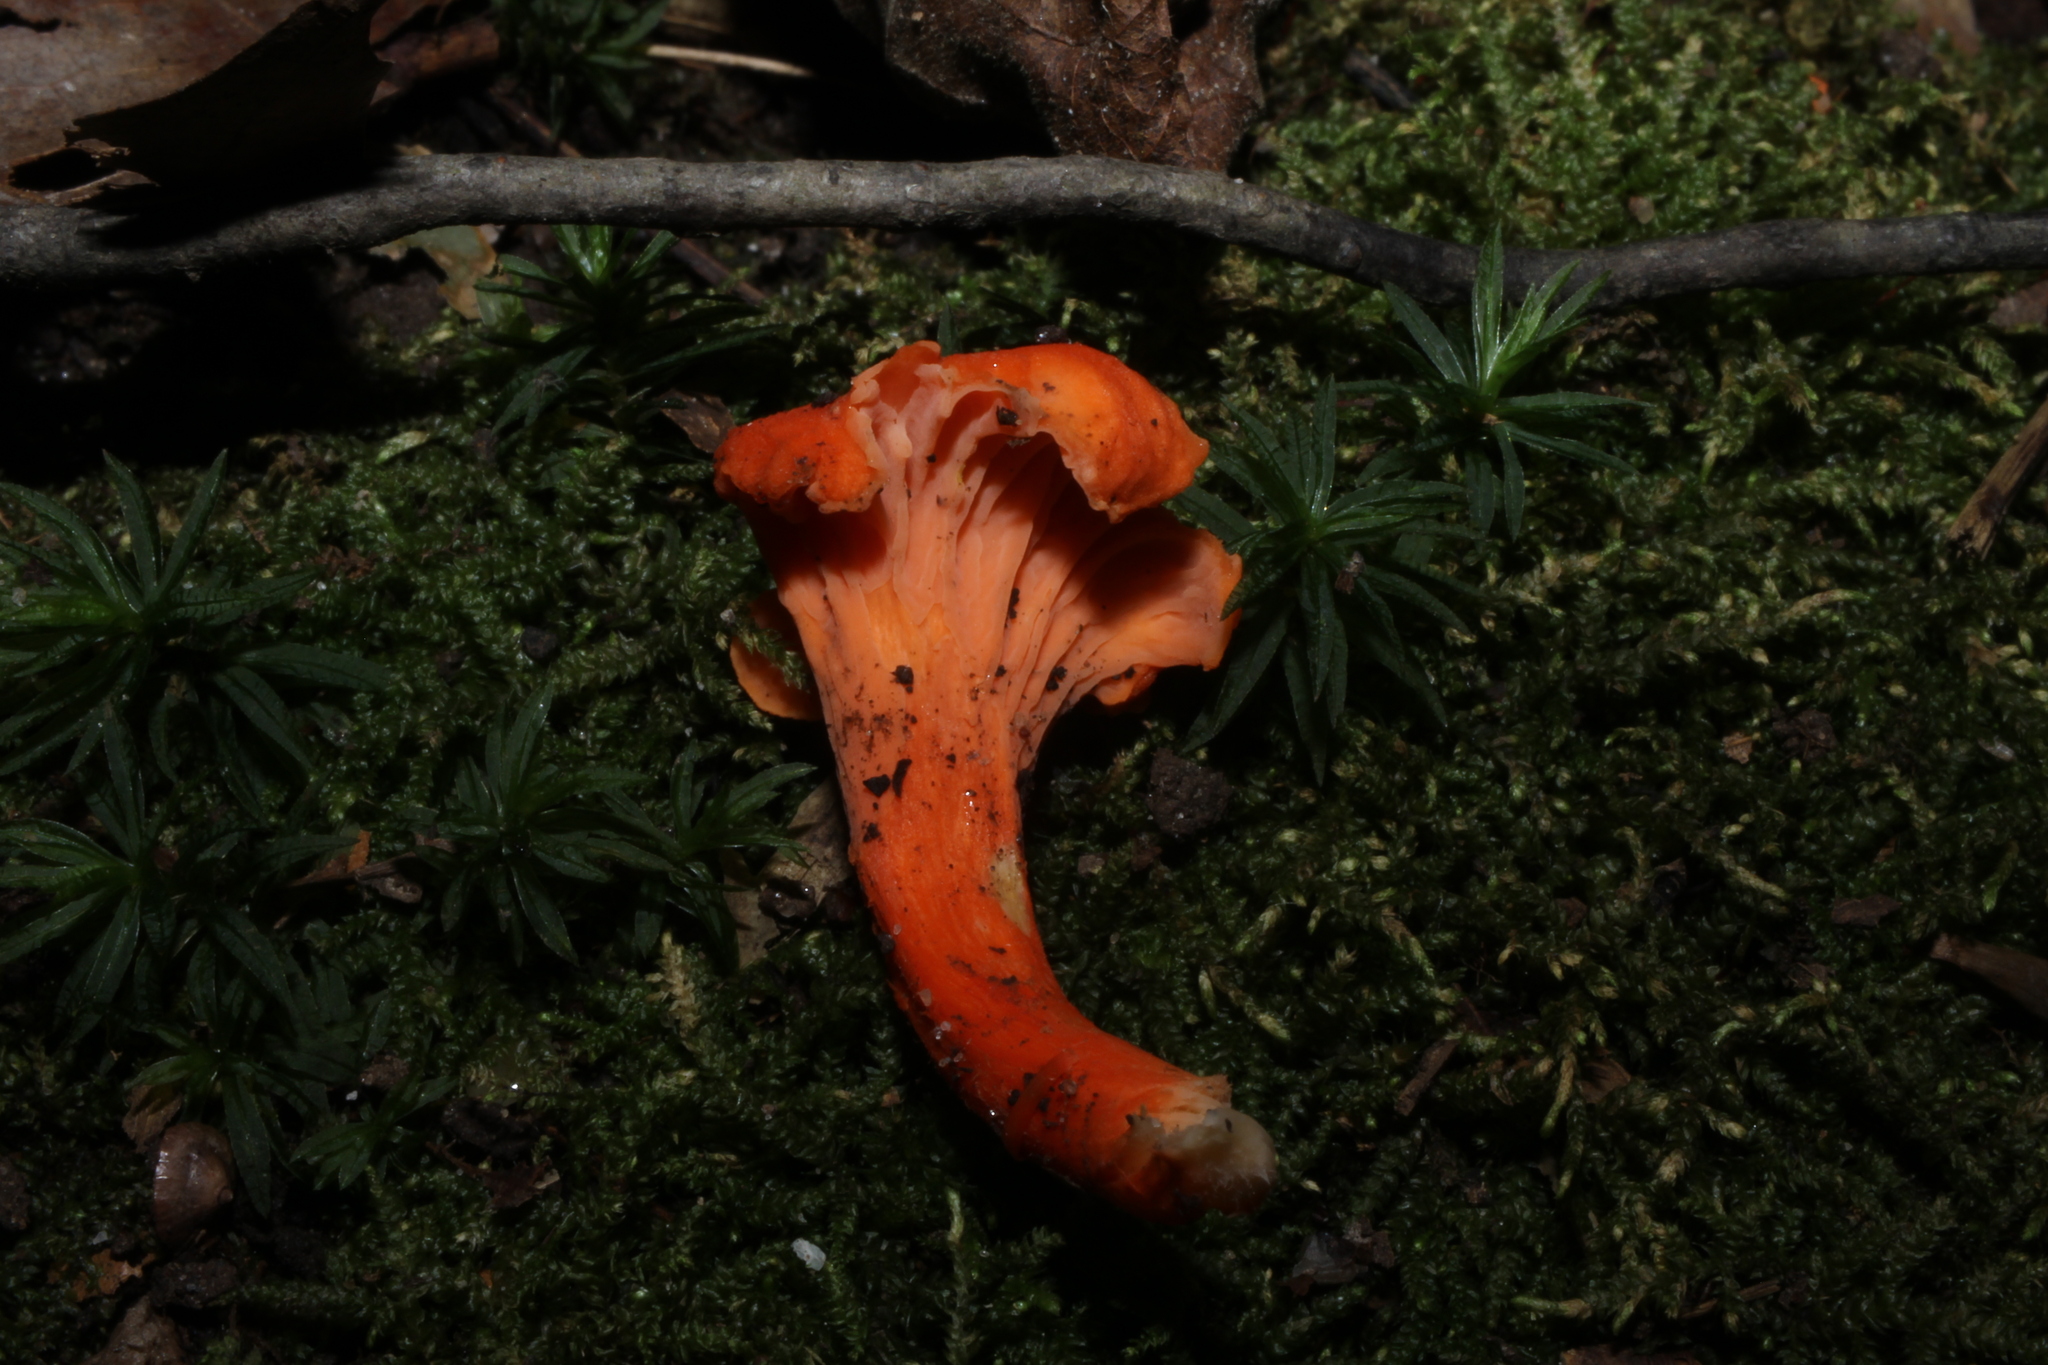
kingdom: Fungi
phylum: Basidiomycota
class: Agaricomycetes
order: Cantharellales
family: Hydnaceae
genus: Cantharellus
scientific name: Cantharellus cinnabarinus
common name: Cinnabar chanterelle
